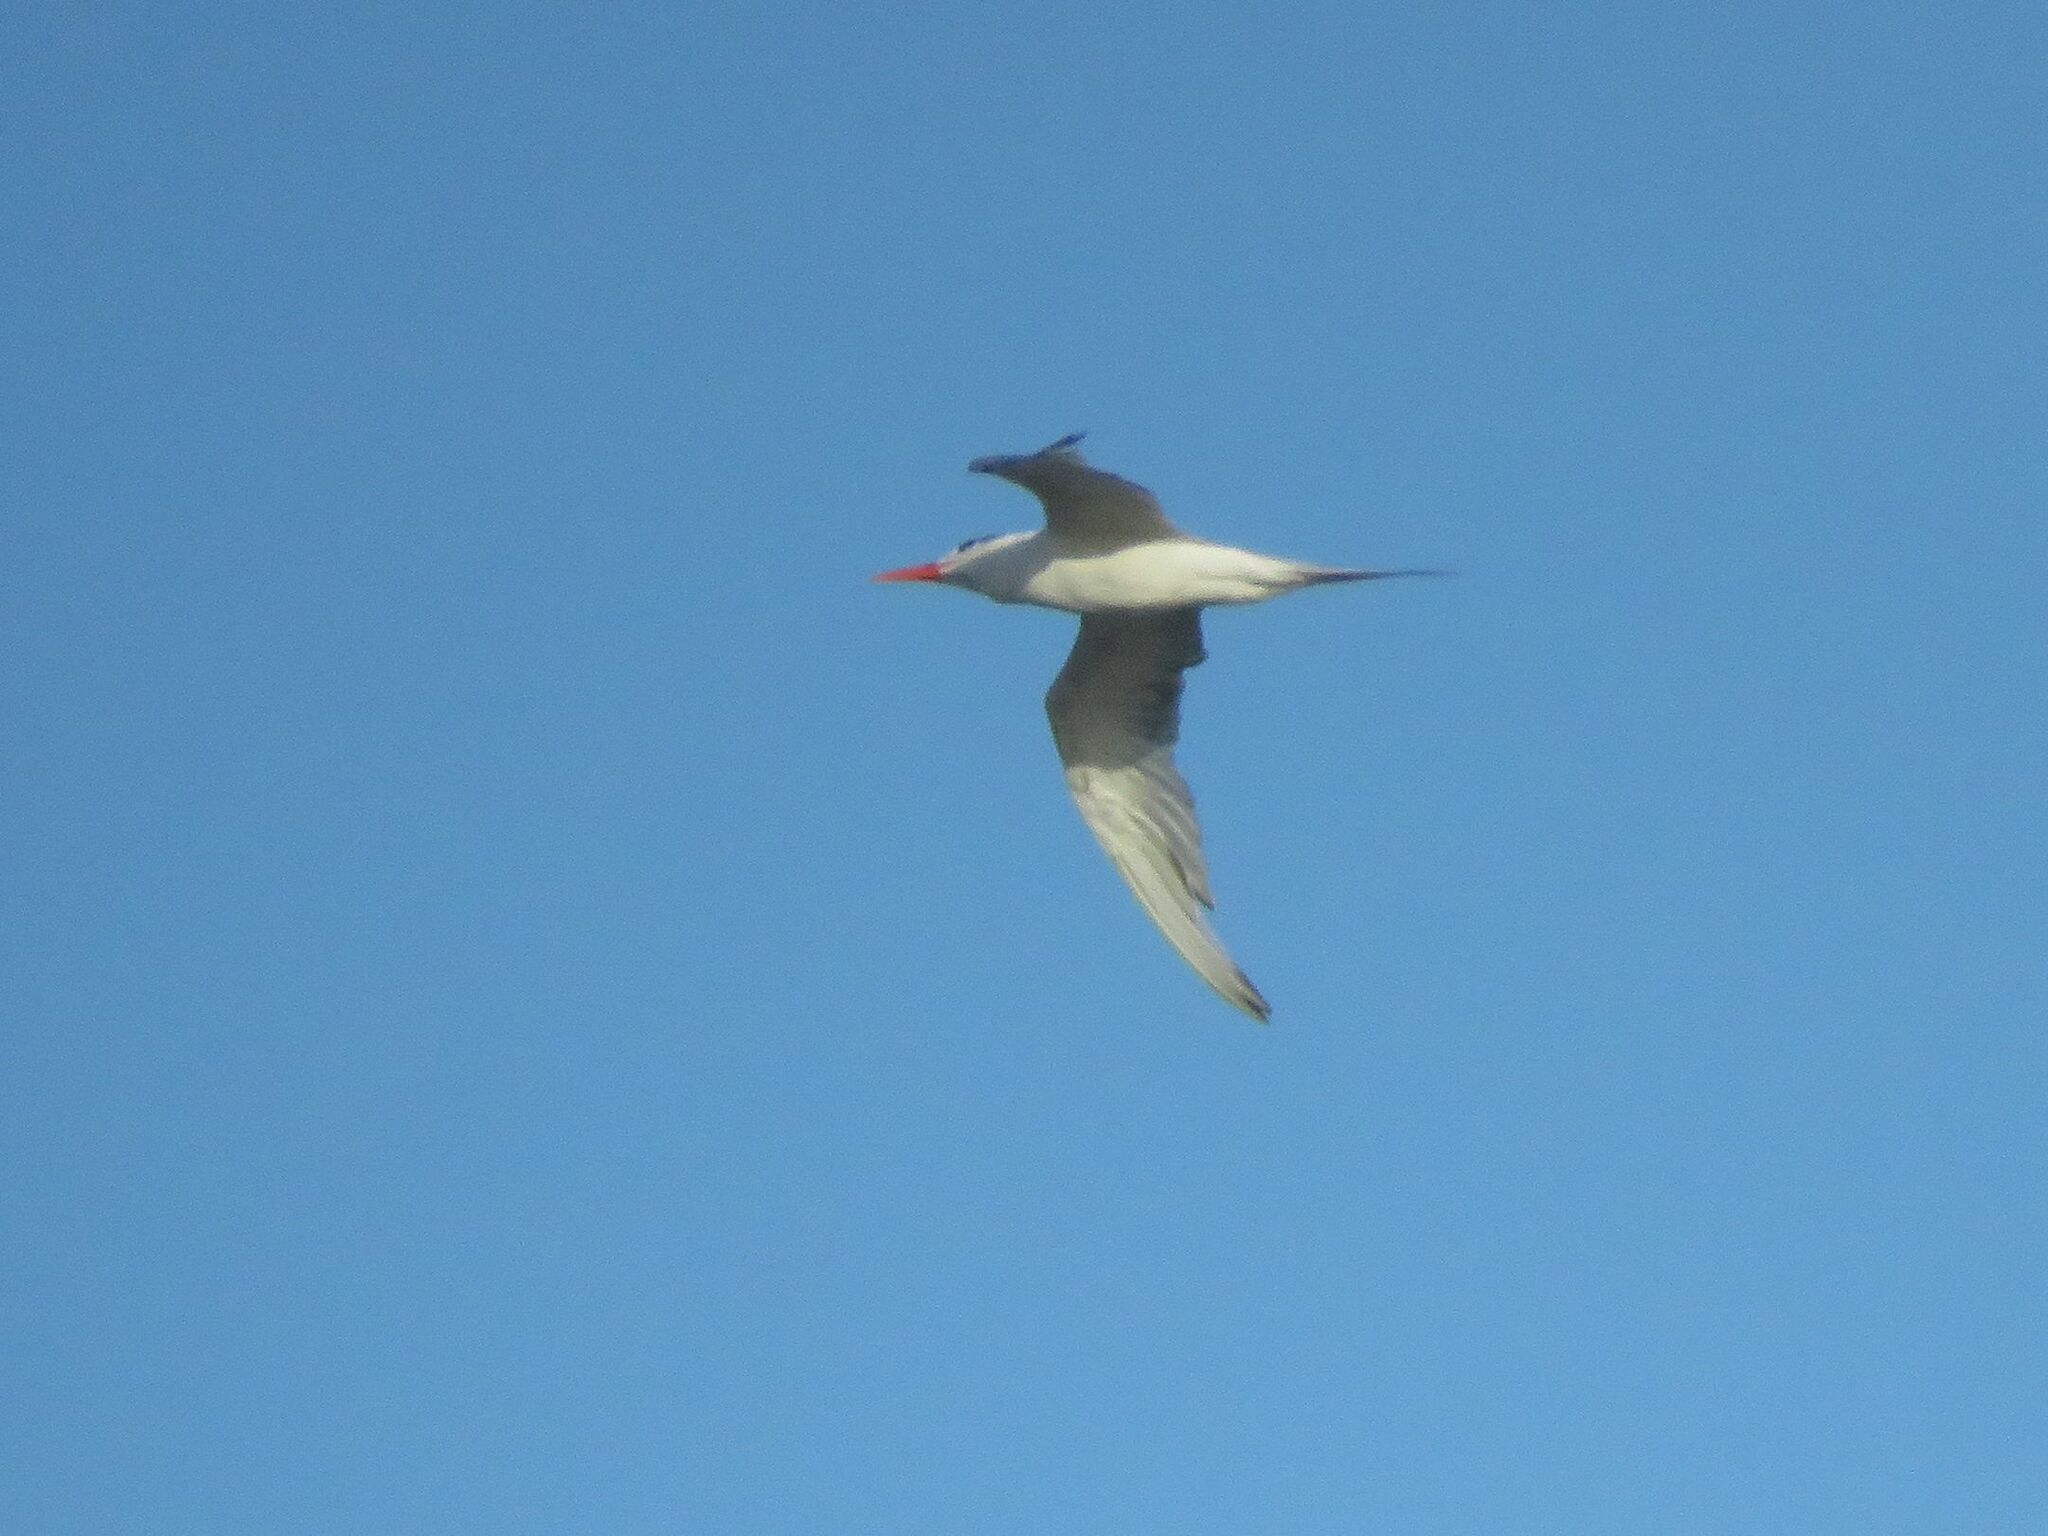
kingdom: Animalia
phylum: Chordata
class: Aves
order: Charadriiformes
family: Laridae
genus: Thalasseus
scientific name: Thalasseus maximus
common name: Royal tern
